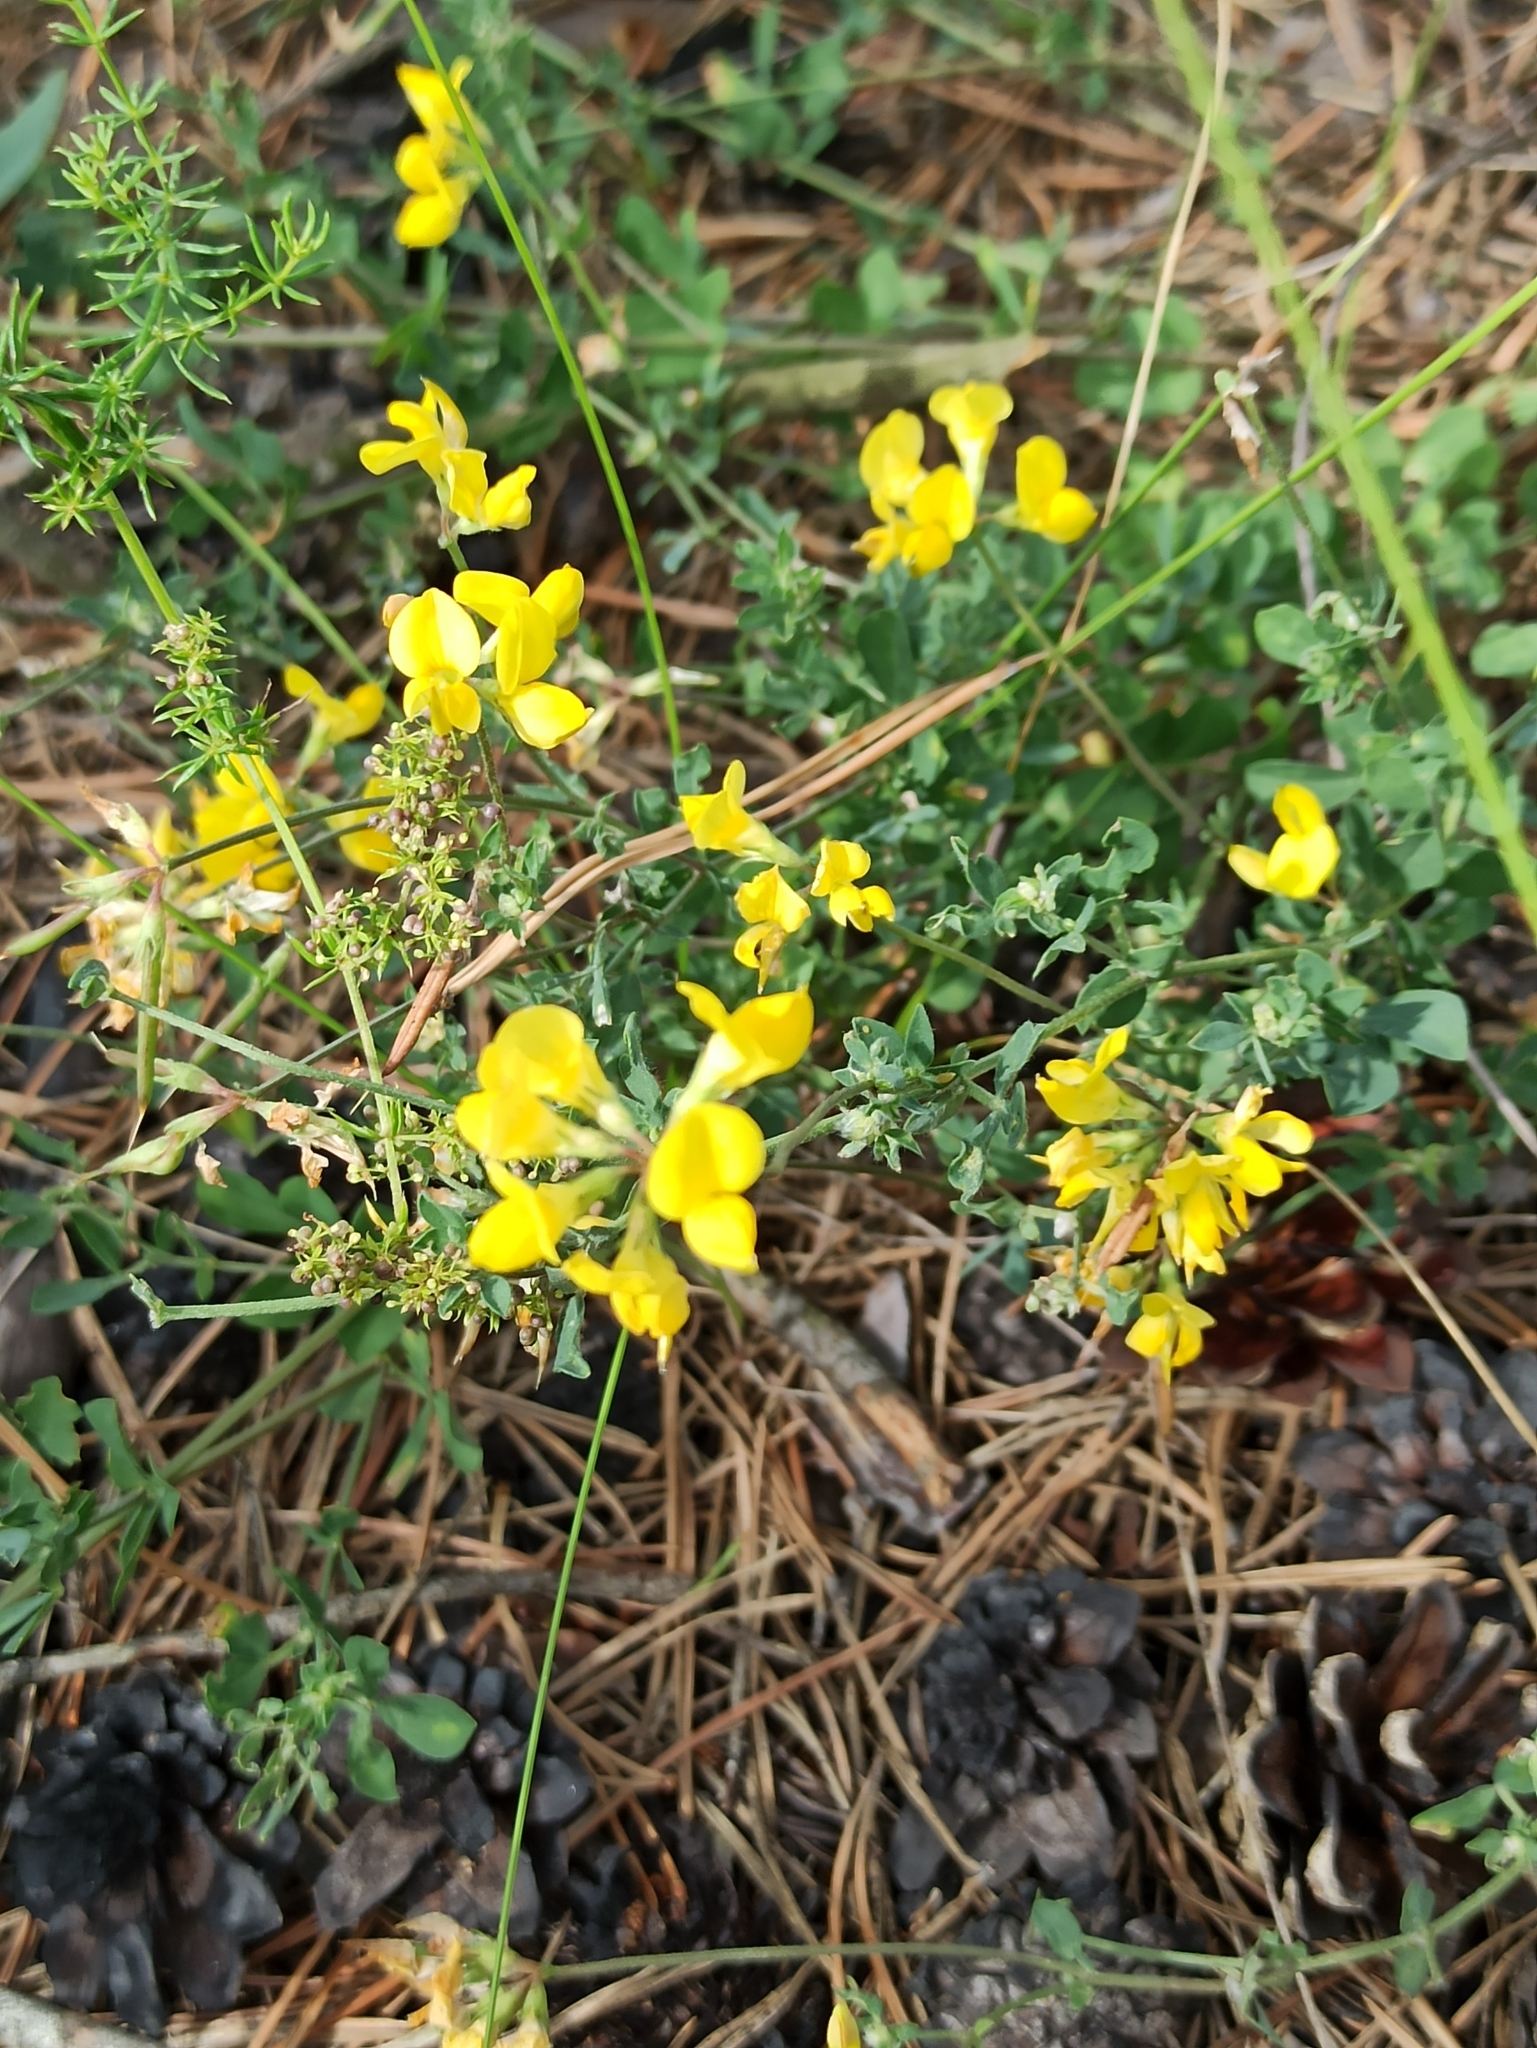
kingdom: Plantae
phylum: Tracheophyta
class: Magnoliopsida
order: Fabales
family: Fabaceae
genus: Lotus
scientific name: Lotus corniculatus
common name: Common bird's-foot-trefoil
